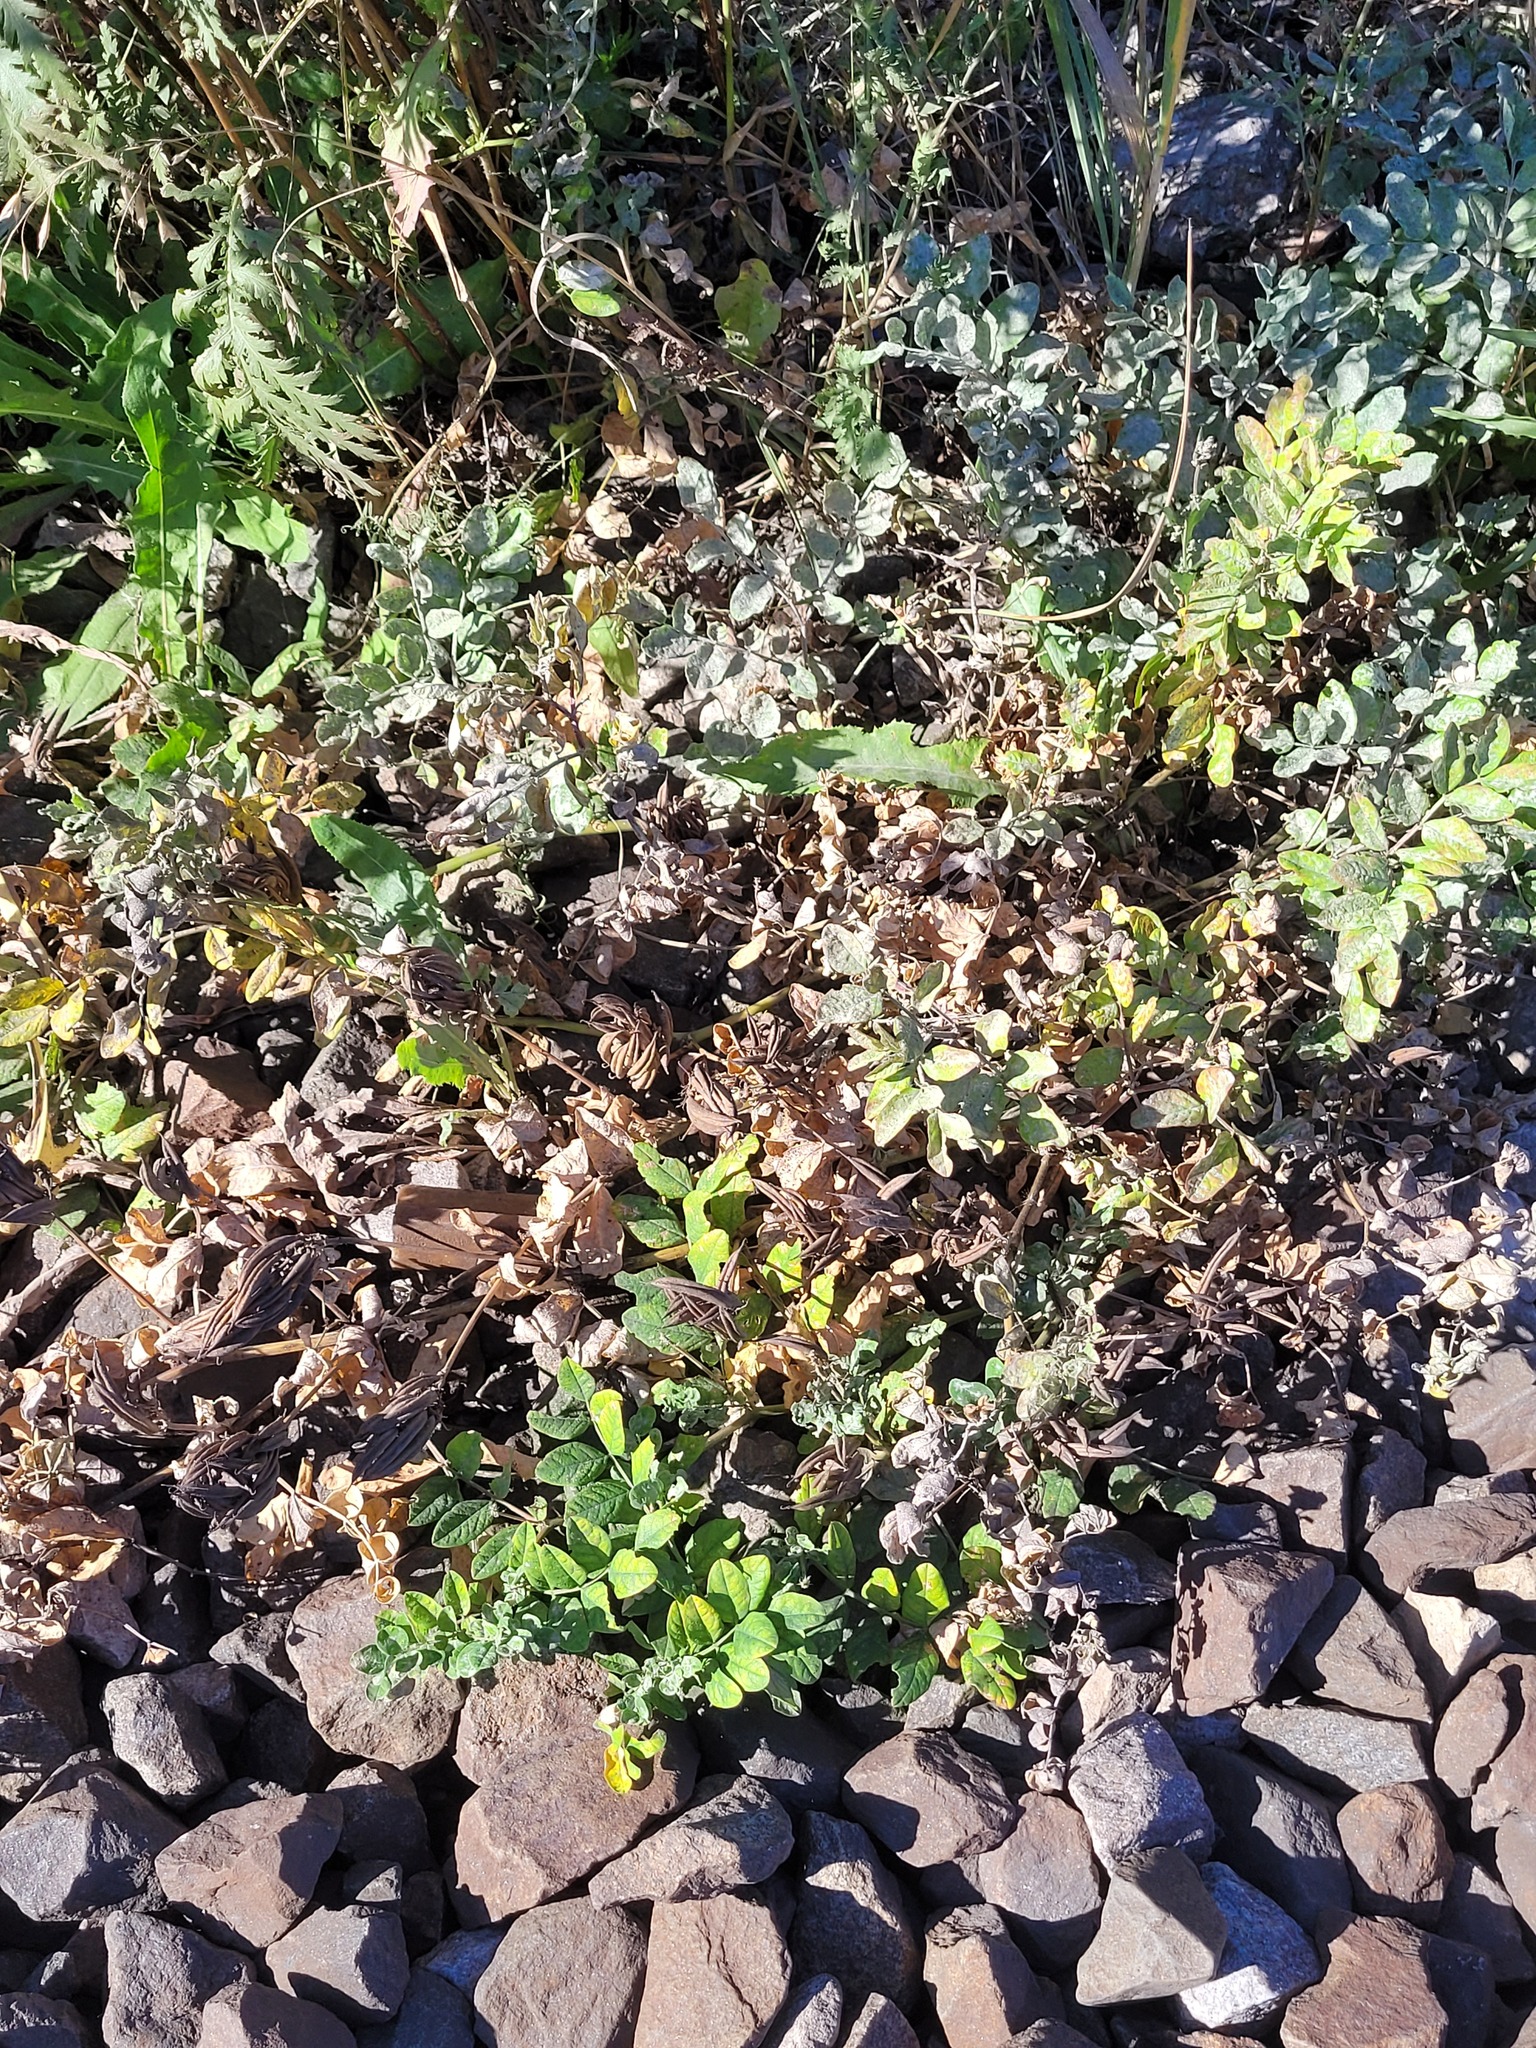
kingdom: Plantae
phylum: Tracheophyta
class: Magnoliopsida
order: Fabales
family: Fabaceae
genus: Astragalus
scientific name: Astragalus glycyphyllos
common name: Wild liquorice
